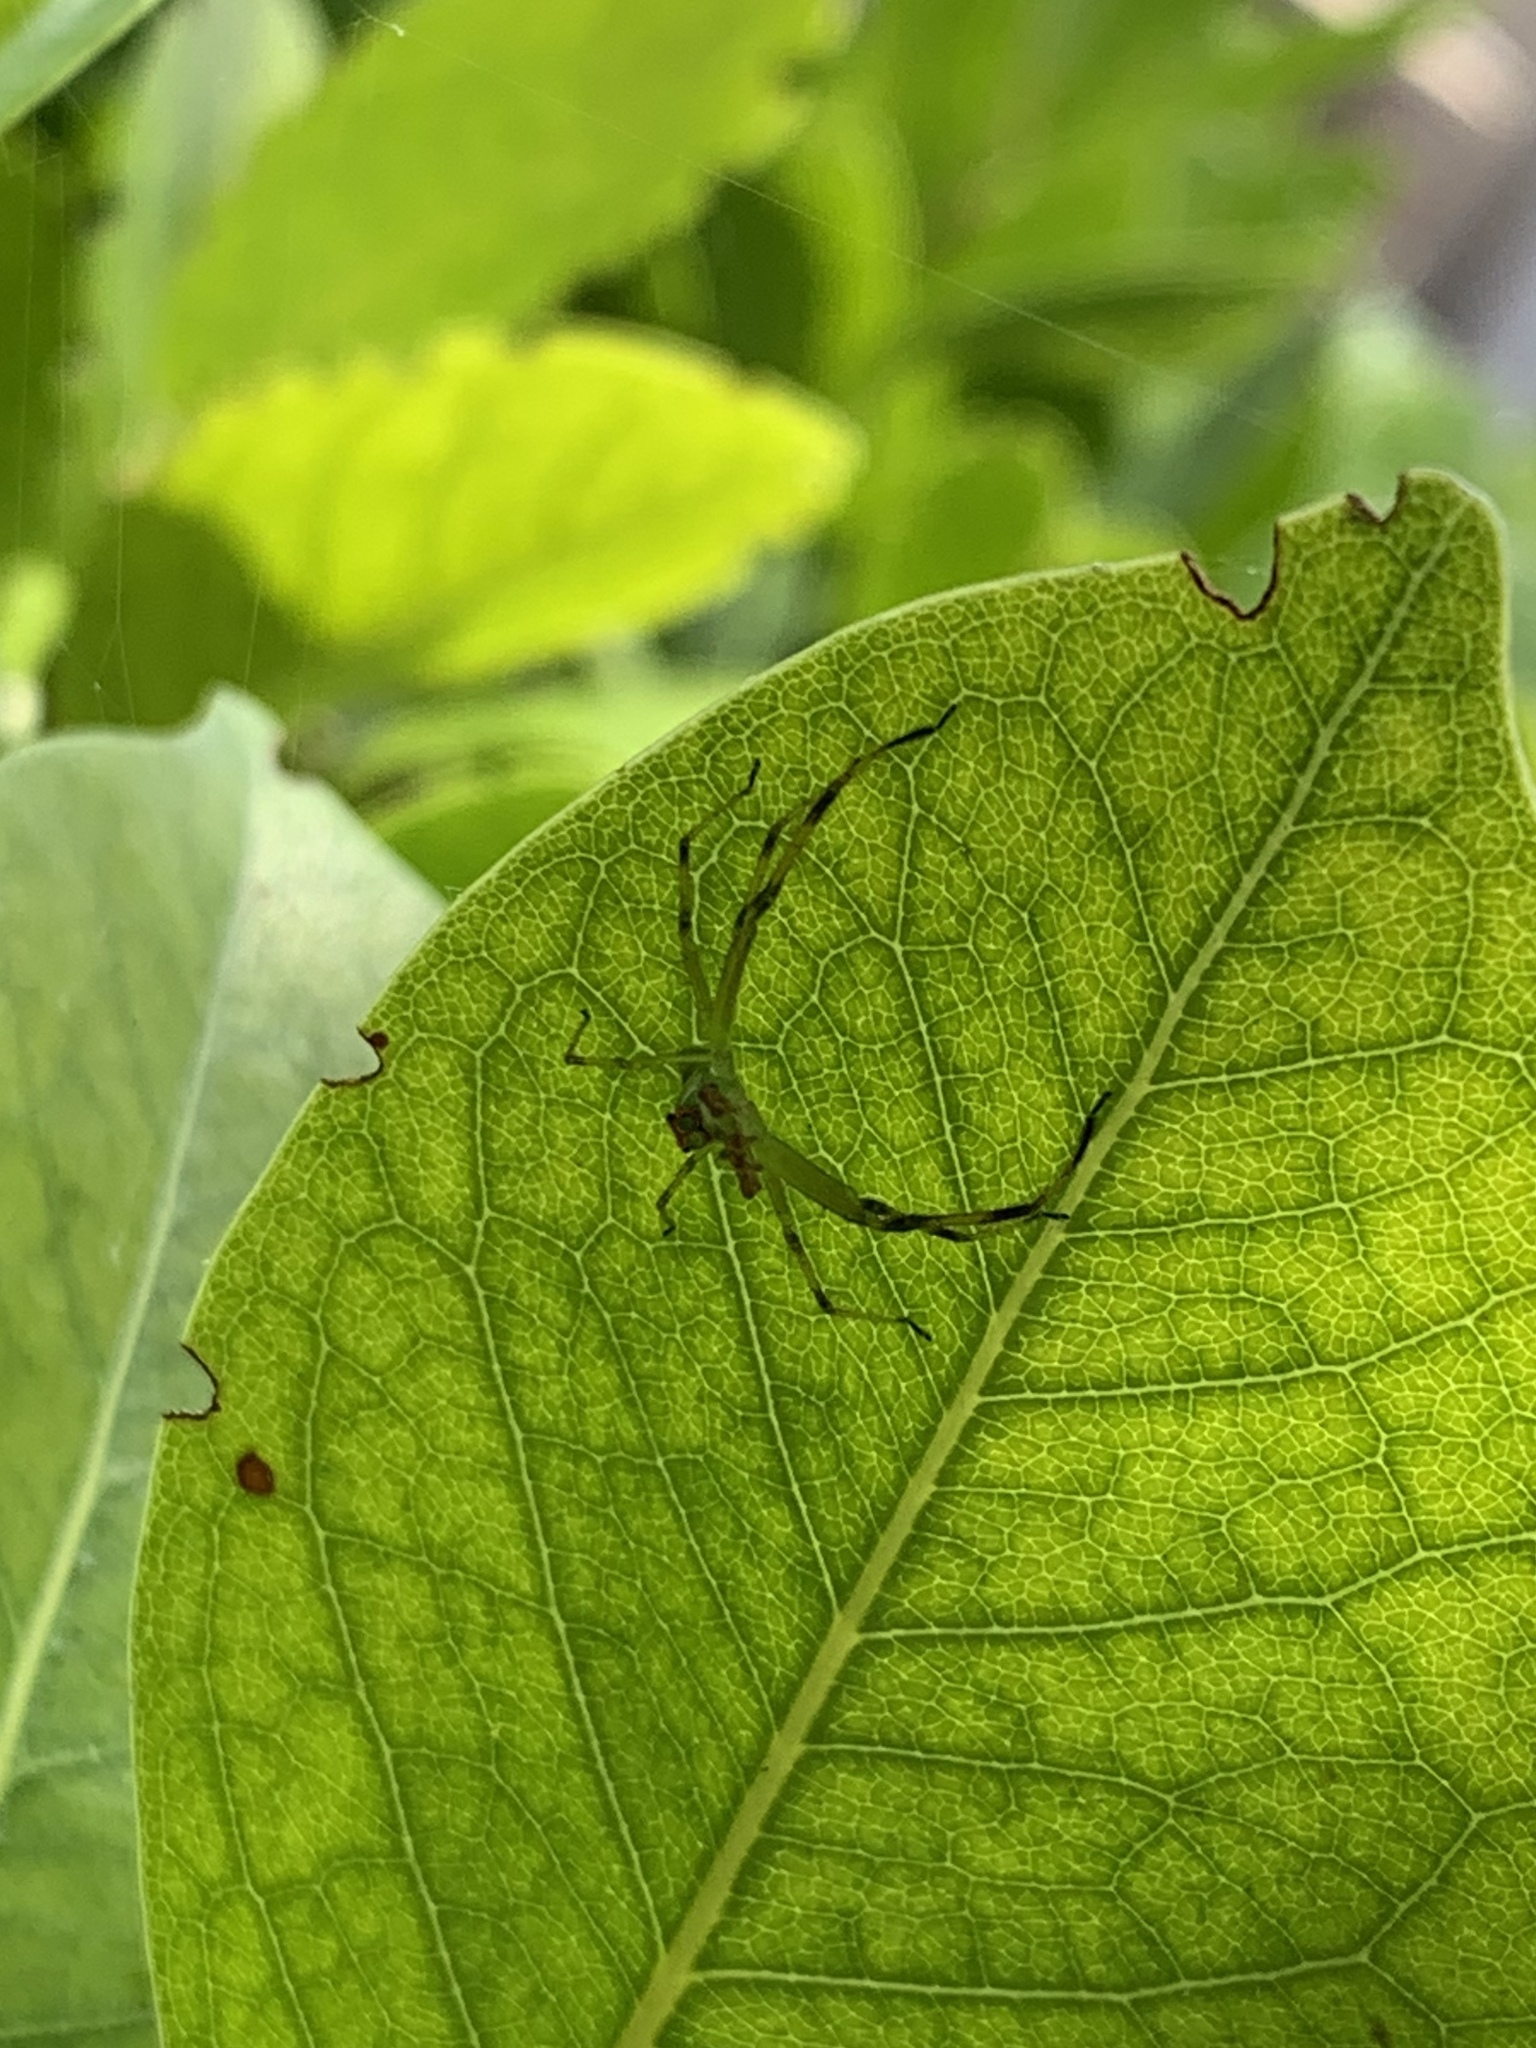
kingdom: Animalia
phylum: Arthropoda
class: Arachnida
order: Araneae
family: Salticidae
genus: Lyssomanes
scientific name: Lyssomanes viridis
